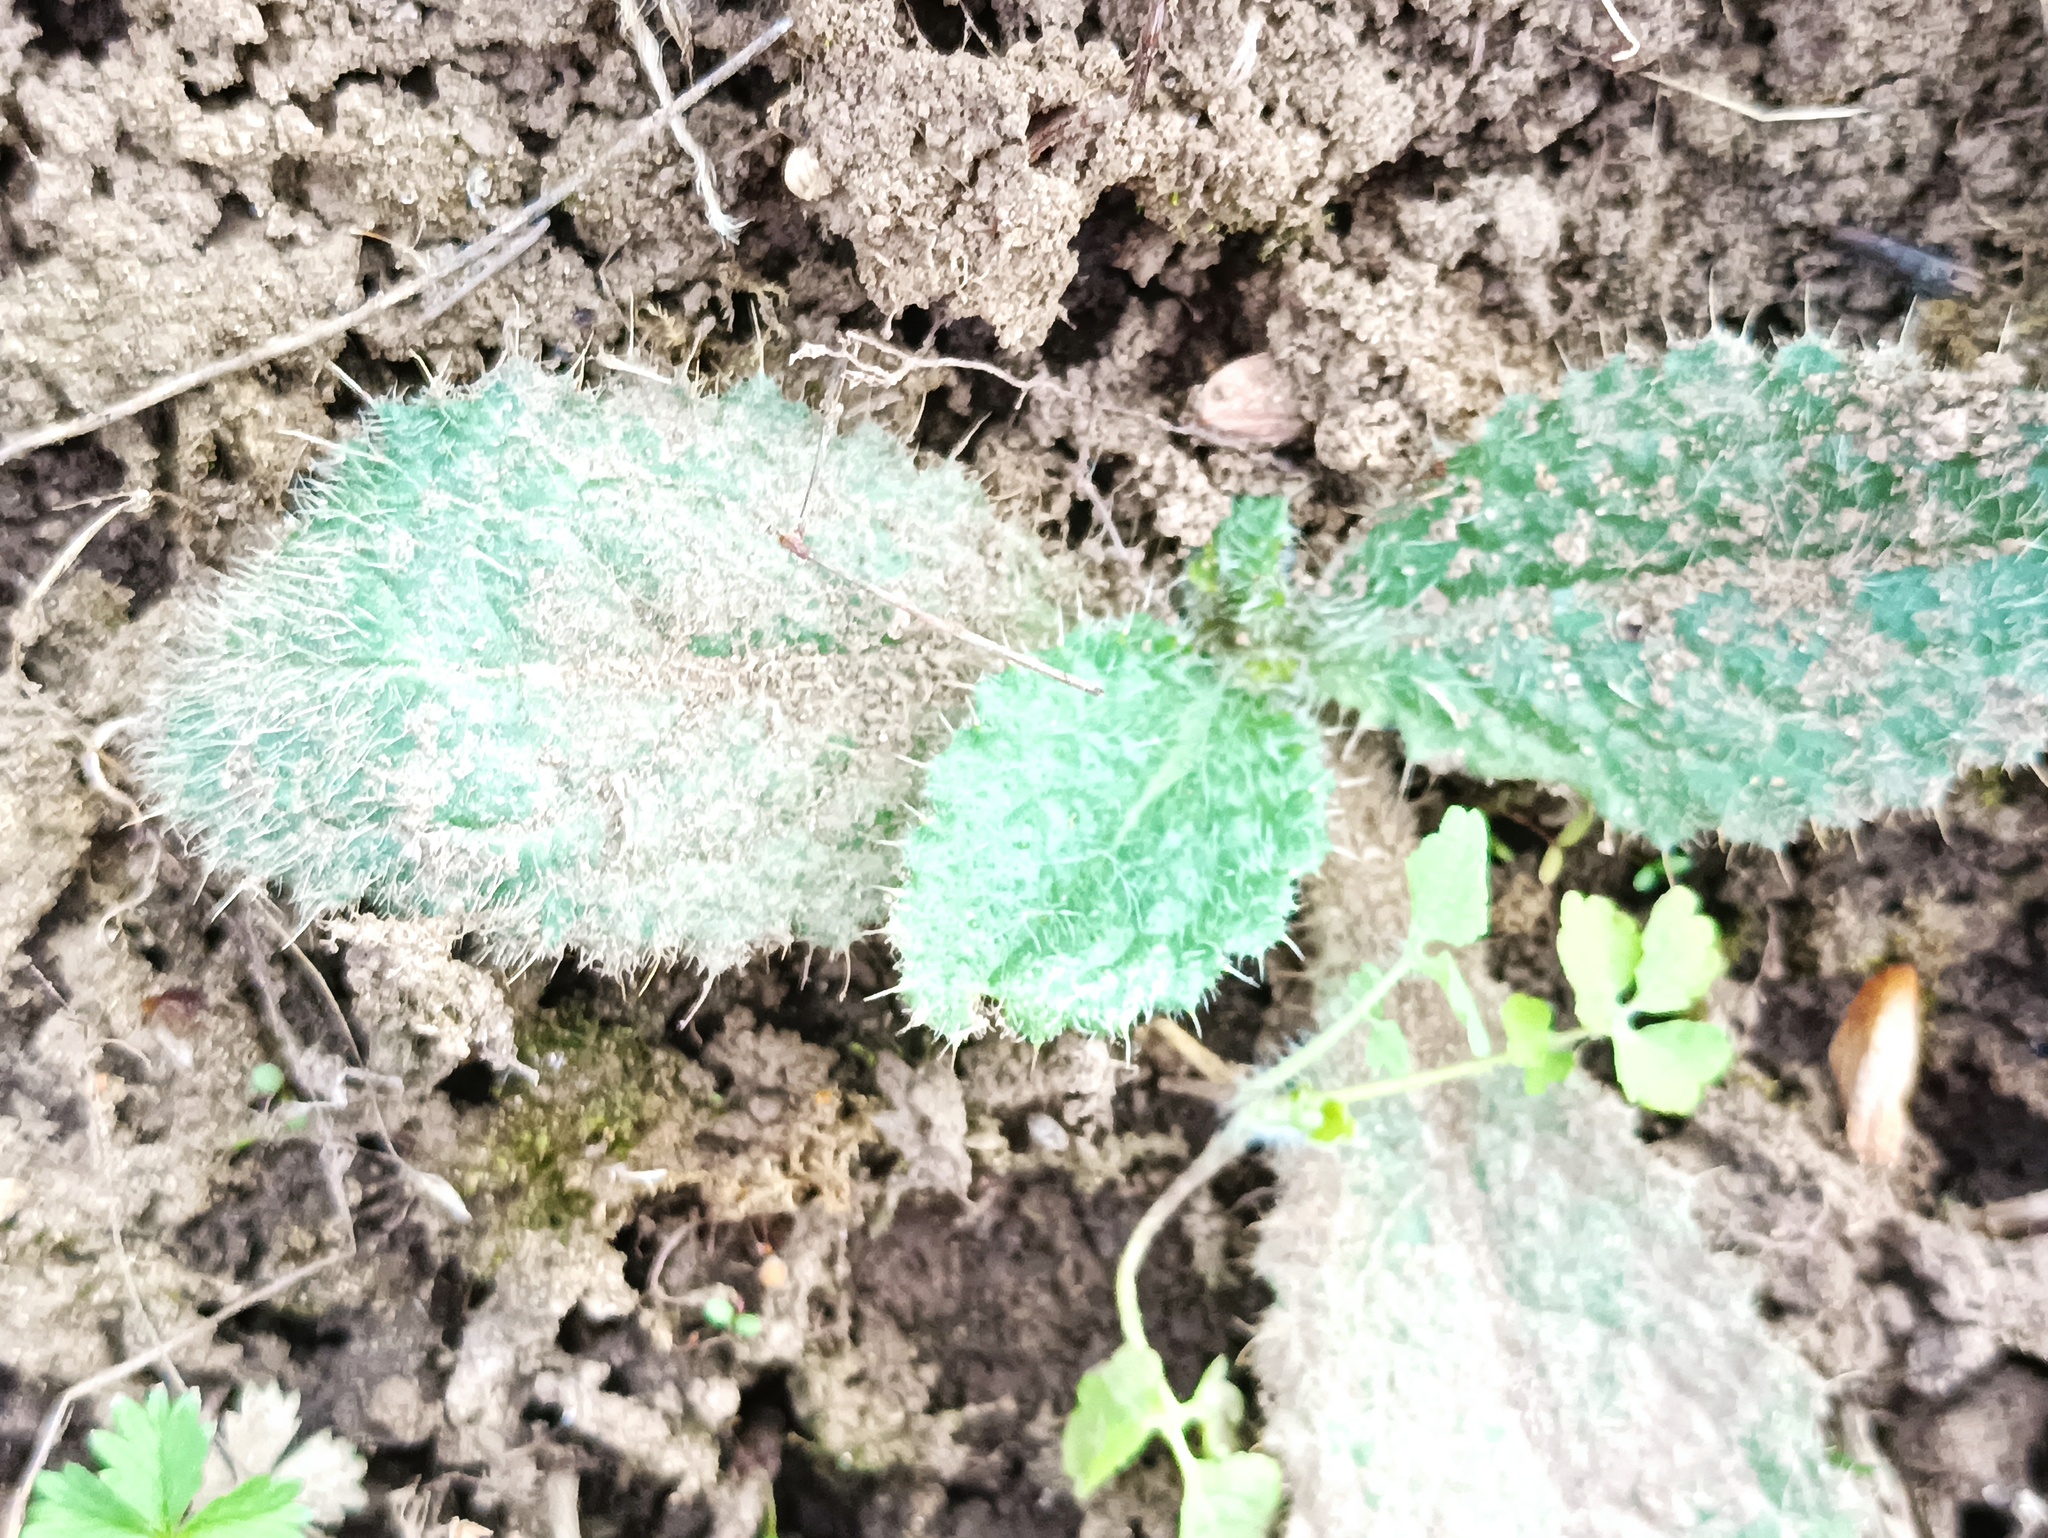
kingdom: Plantae
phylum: Tracheophyta
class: Magnoliopsida
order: Asterales
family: Asteraceae
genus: Cirsium
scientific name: Cirsium vulgare
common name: Bull thistle
